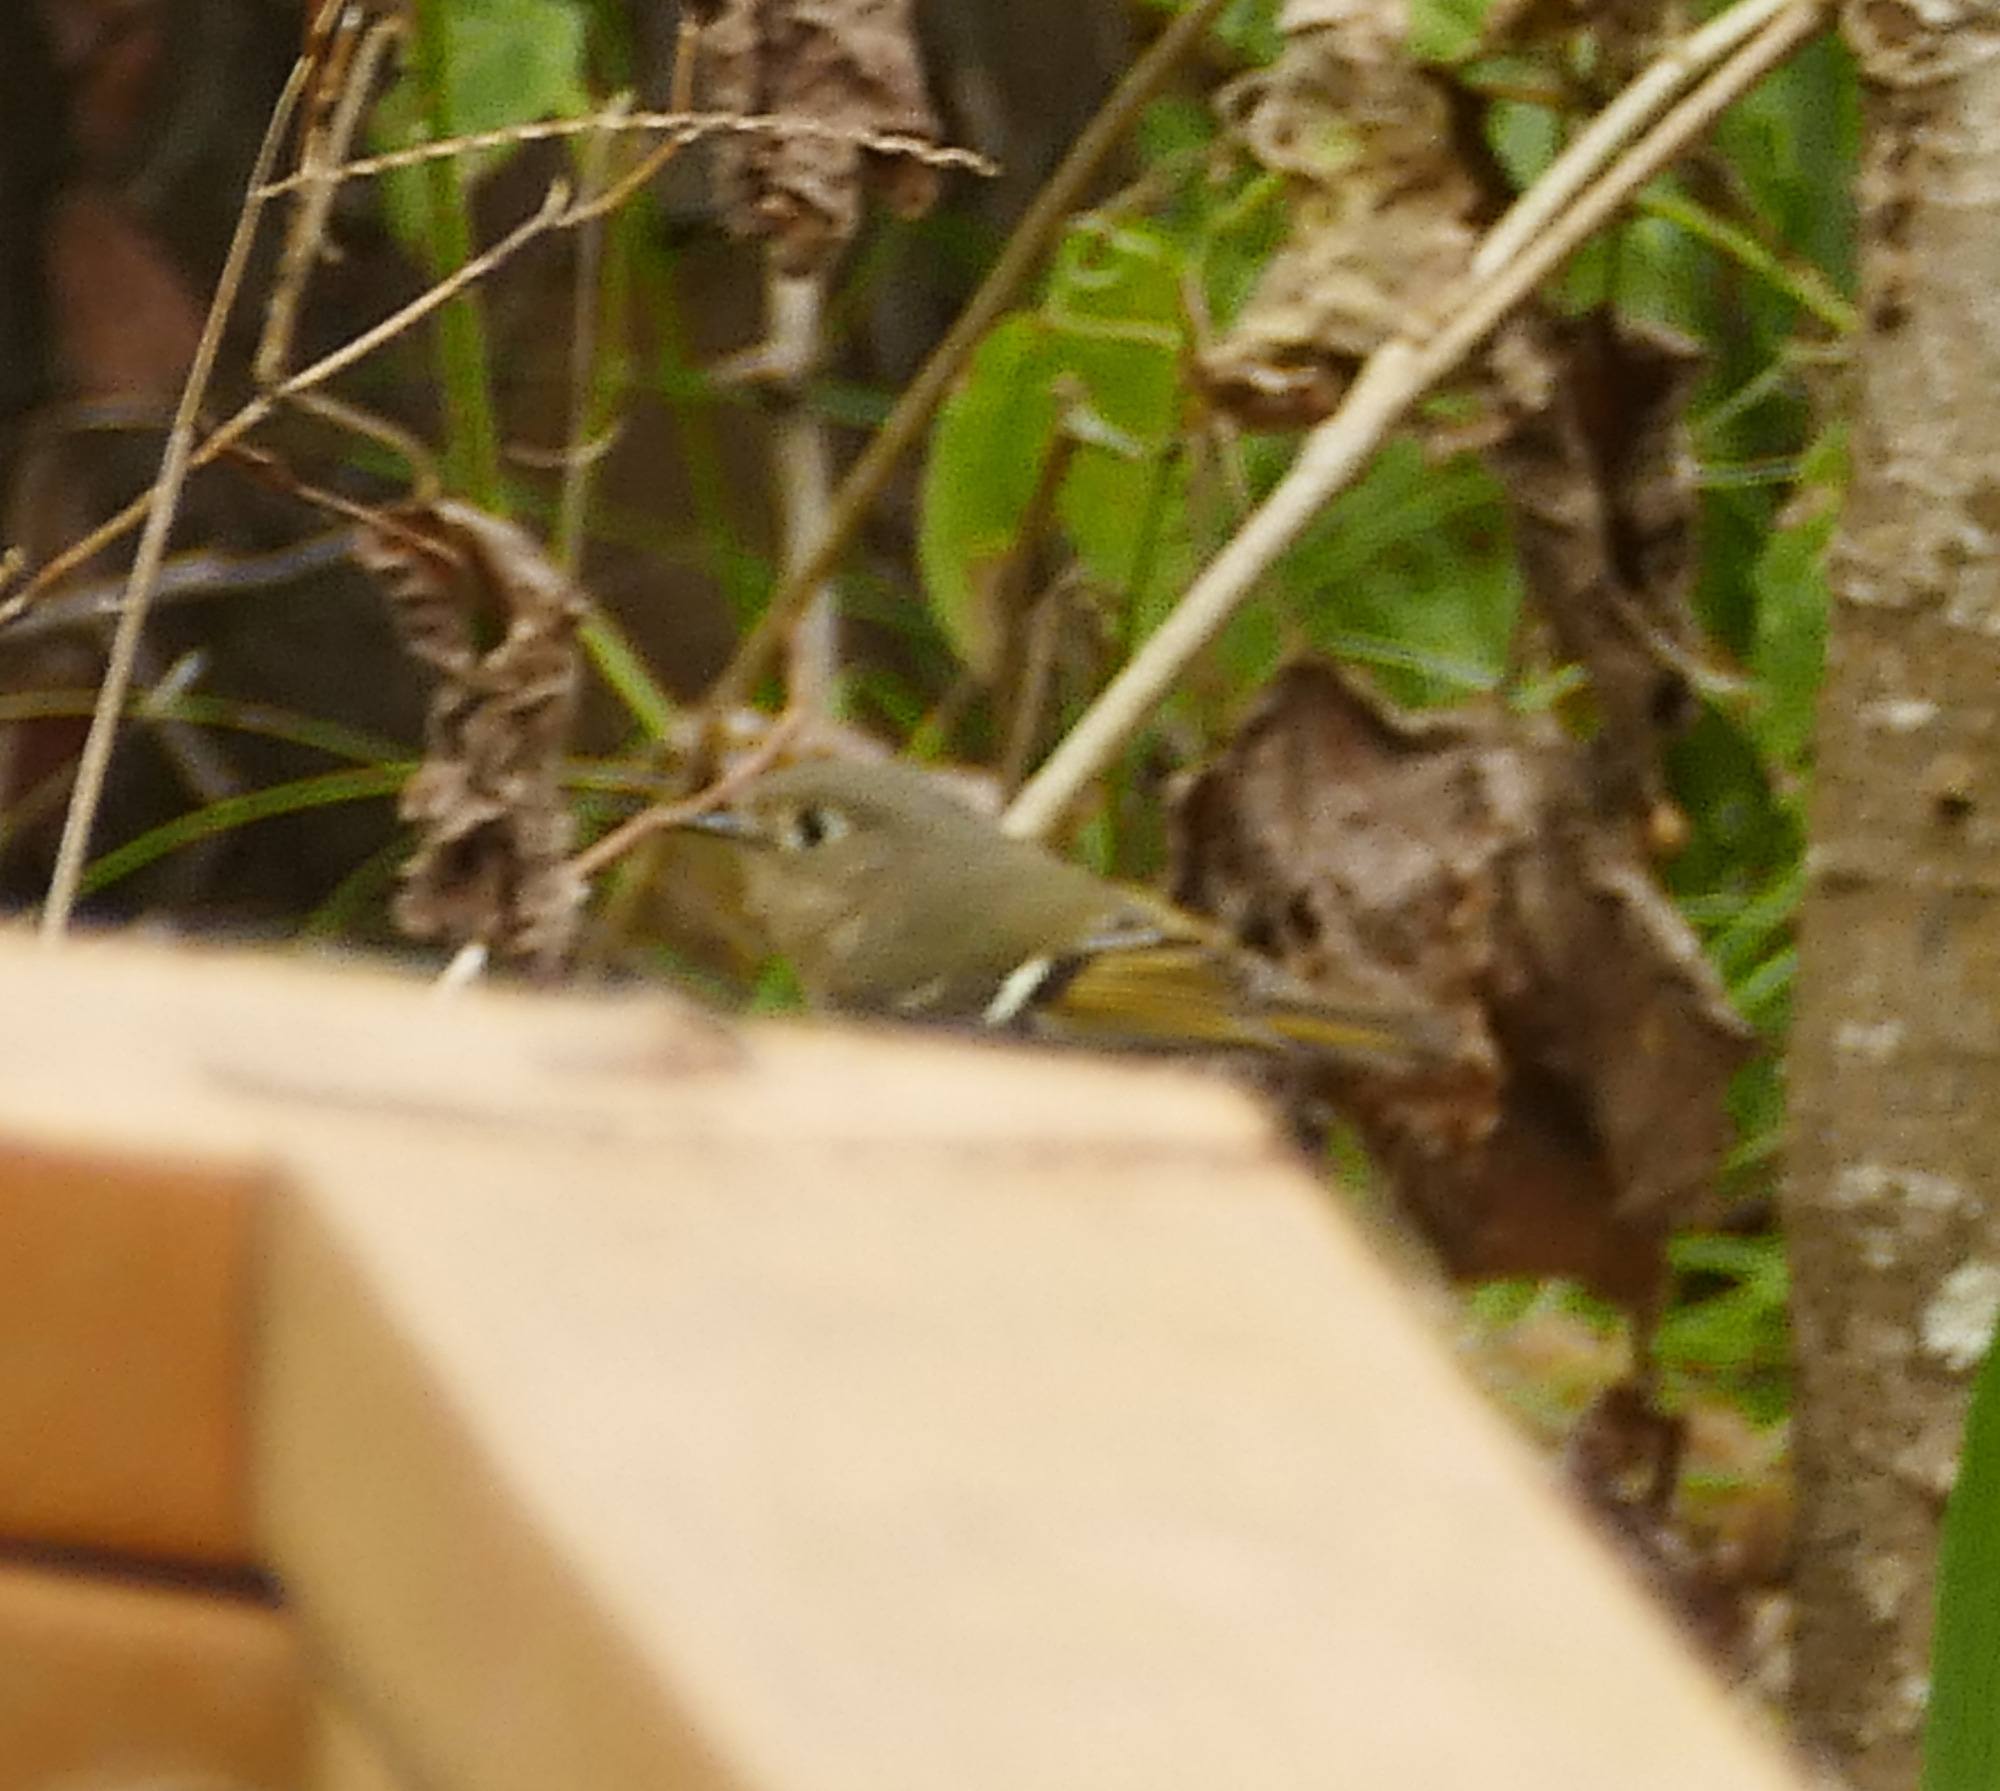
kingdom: Animalia
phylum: Chordata
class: Aves
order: Passeriformes
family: Regulidae
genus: Regulus
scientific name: Regulus calendula
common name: Ruby-crowned kinglet
